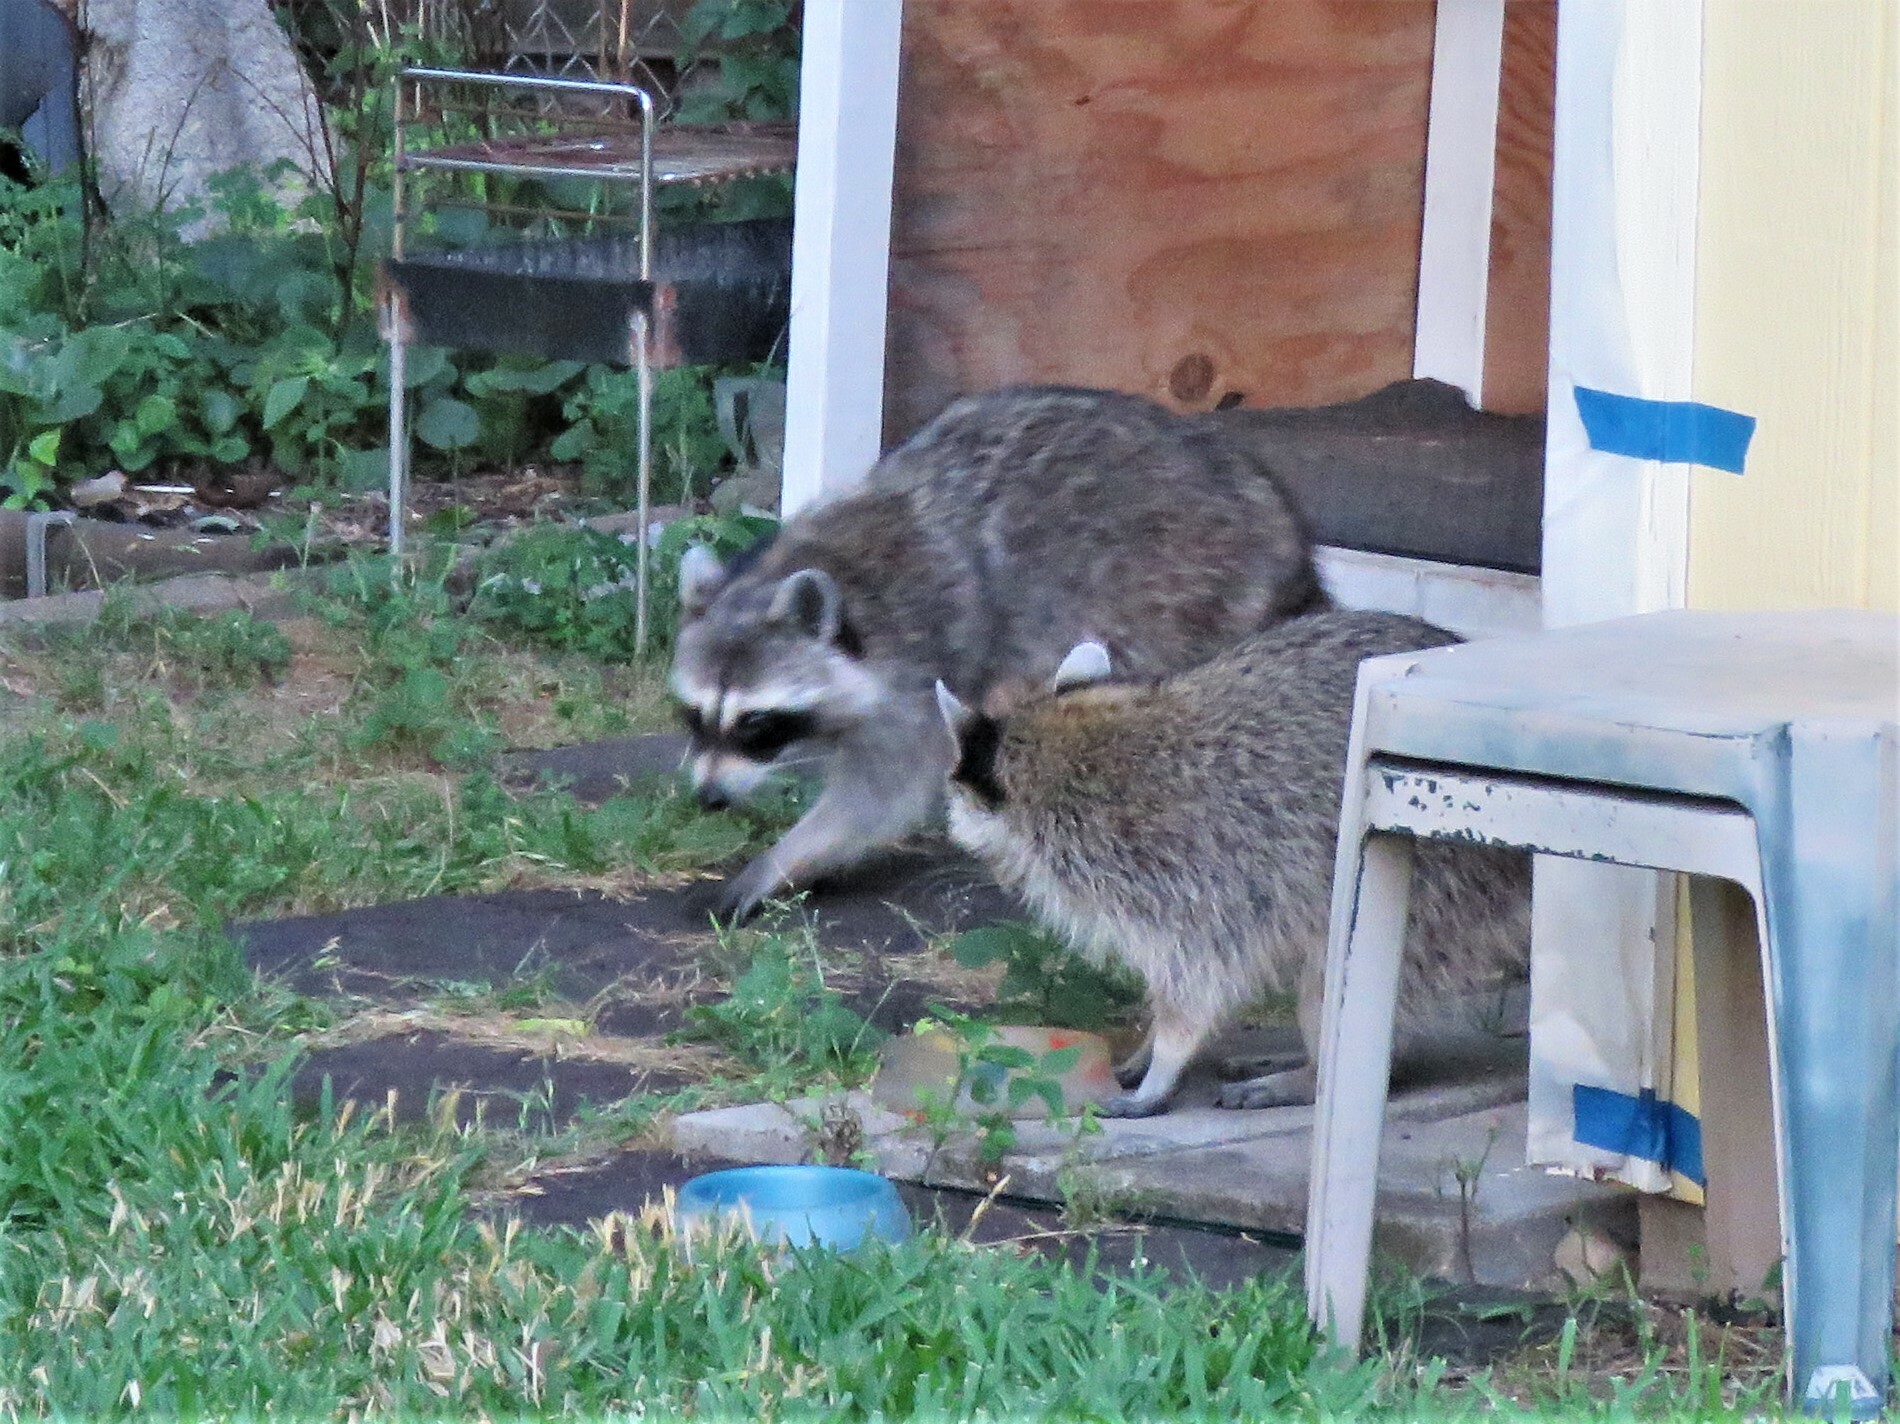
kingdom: Animalia
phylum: Chordata
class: Mammalia
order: Carnivora
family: Procyonidae
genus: Procyon
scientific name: Procyon lotor
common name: Raccoon
